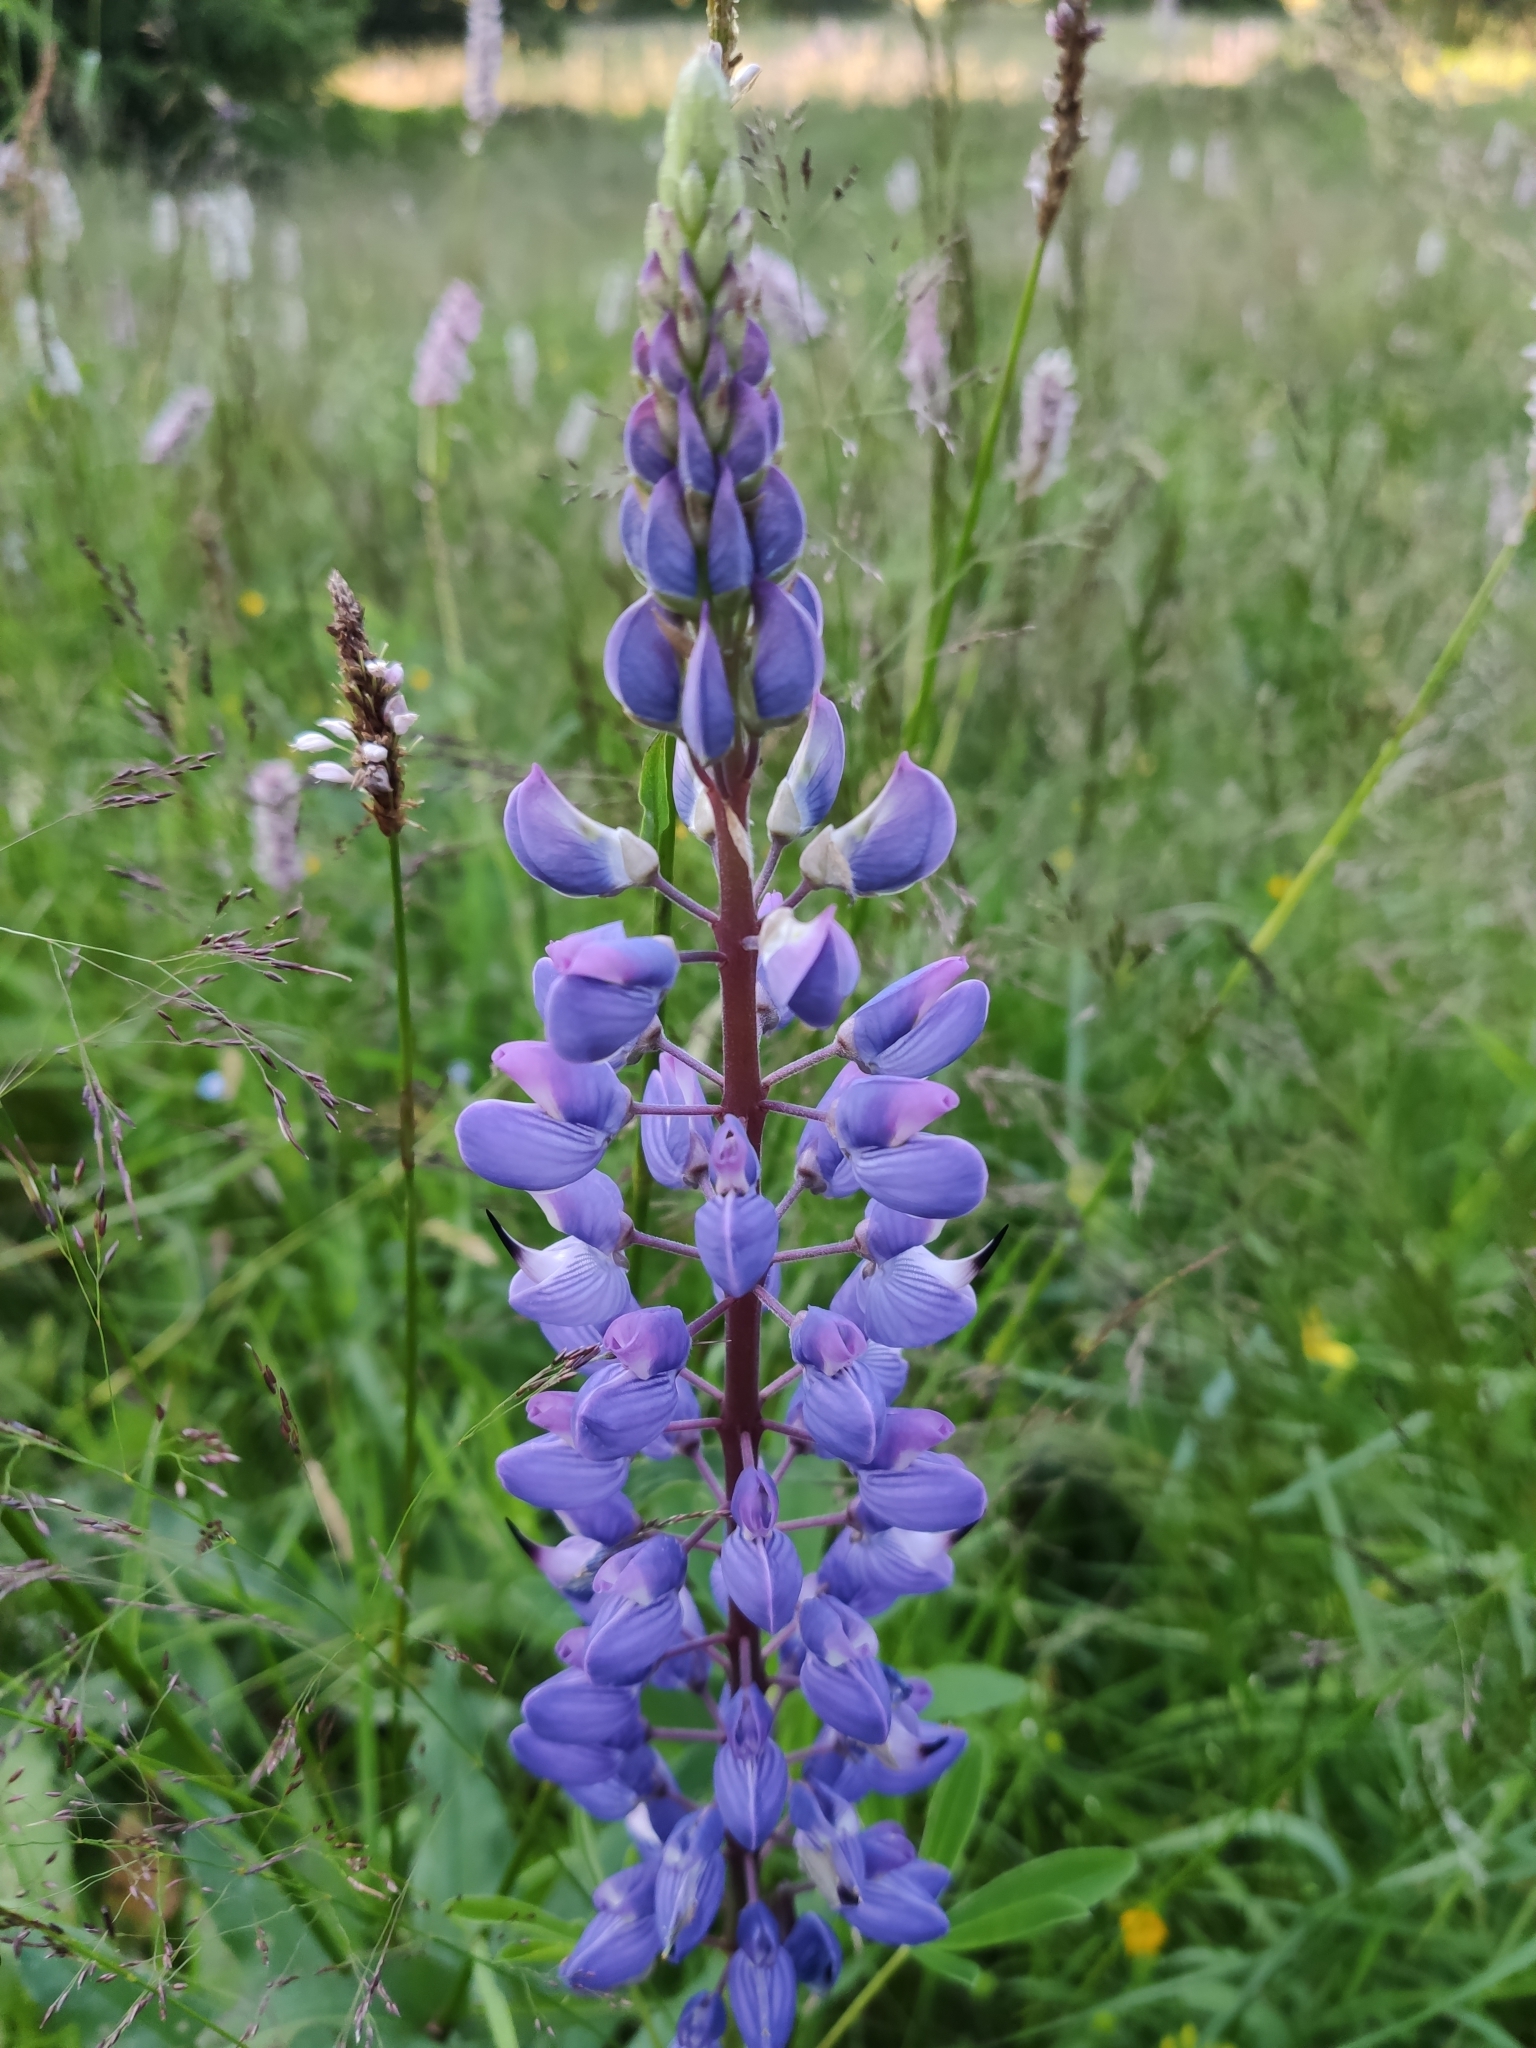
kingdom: Plantae
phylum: Tracheophyta
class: Magnoliopsida
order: Fabales
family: Fabaceae
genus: Lupinus
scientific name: Lupinus polyphyllus
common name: Garden lupin
